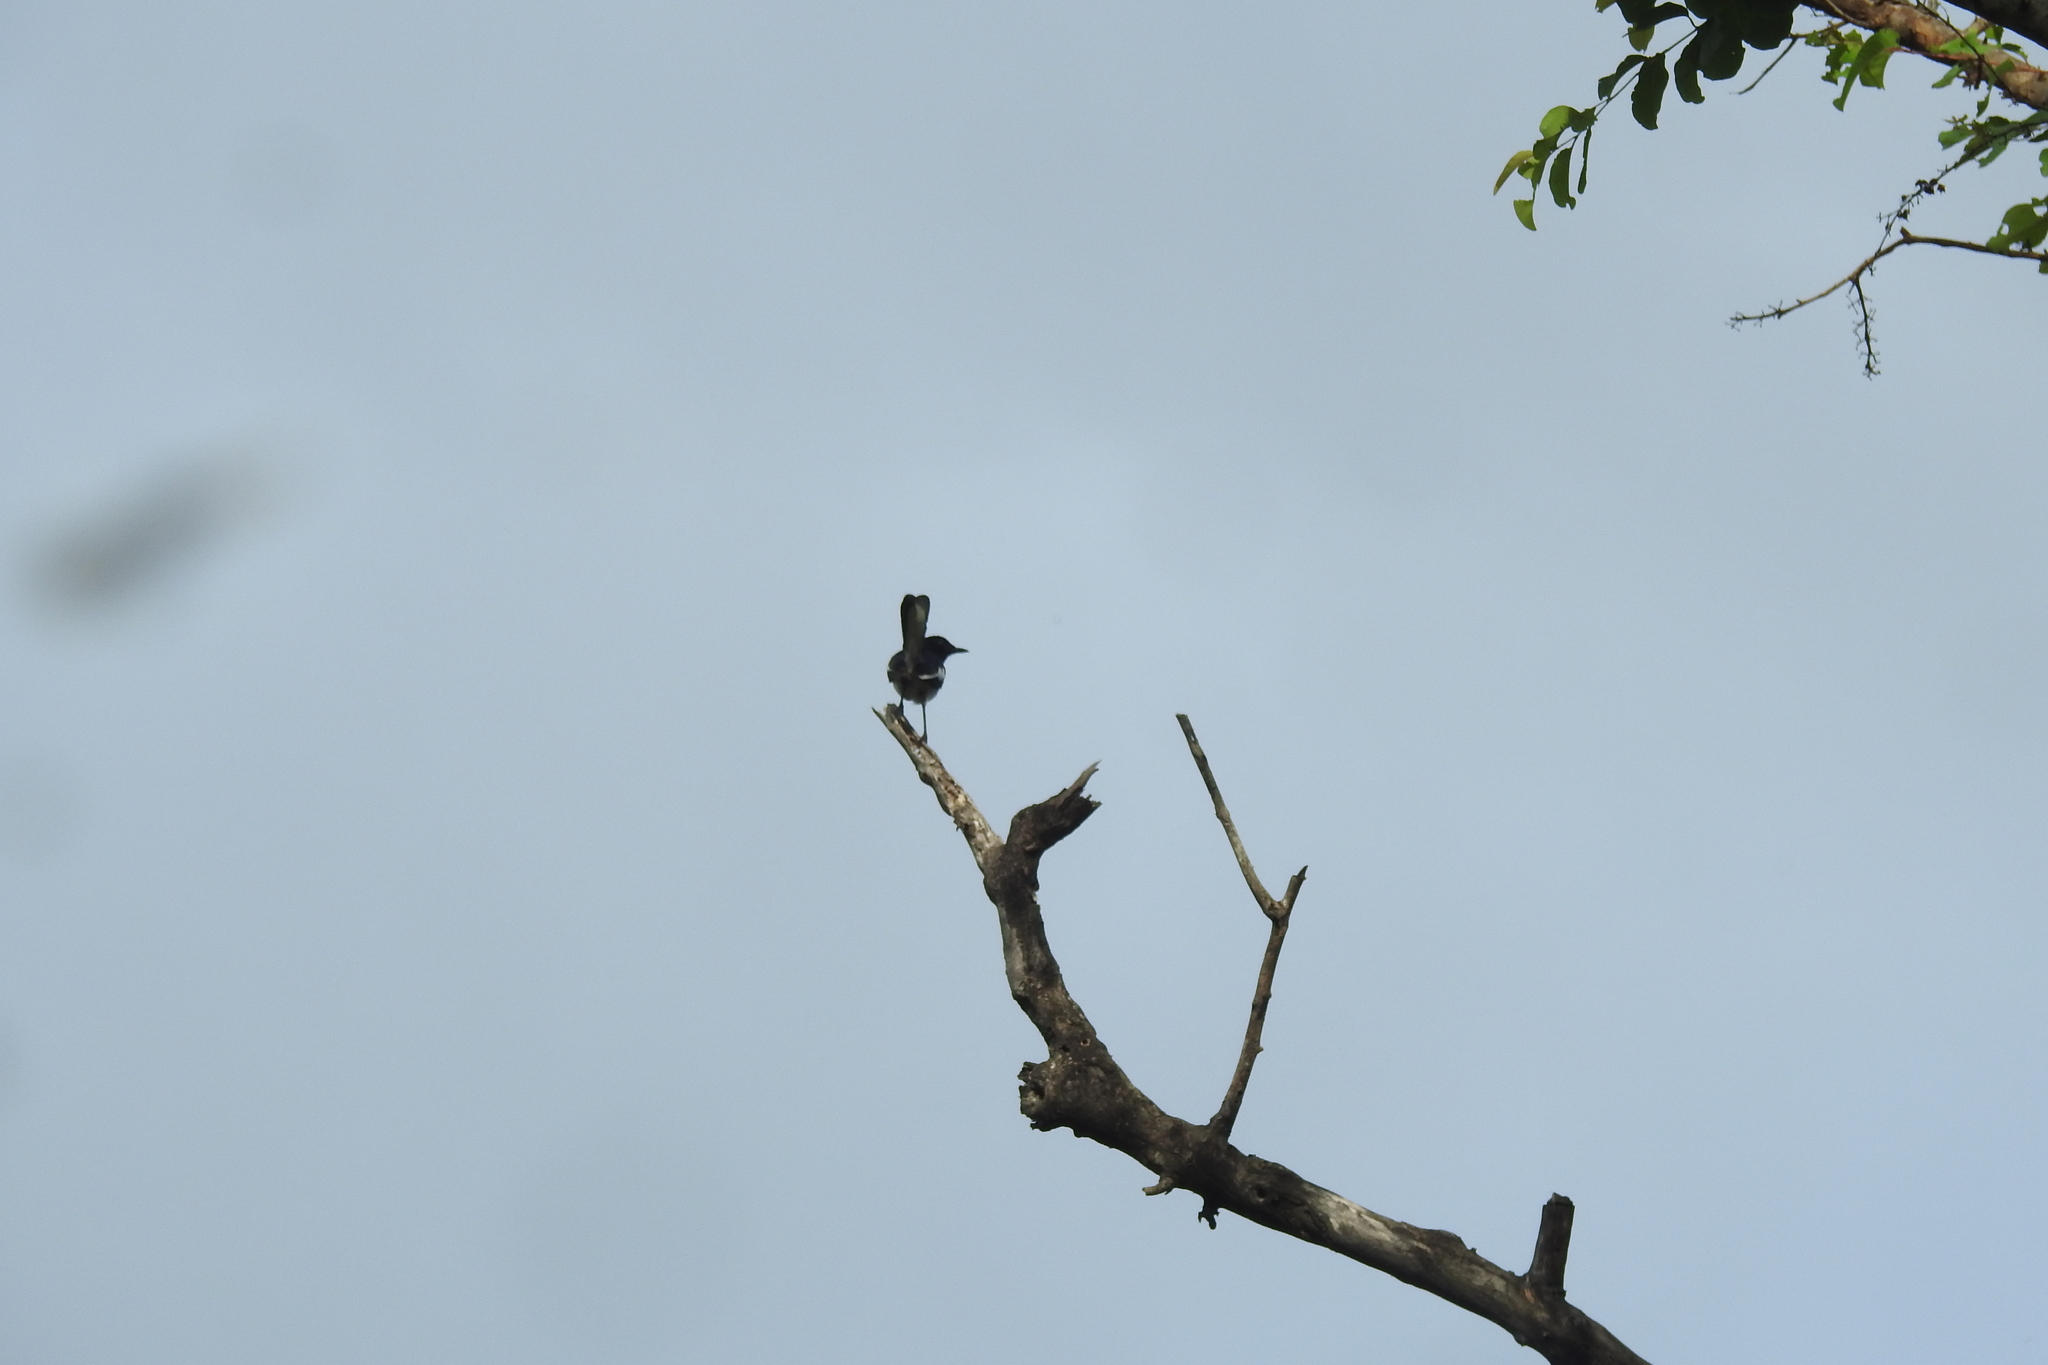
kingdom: Animalia
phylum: Chordata
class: Aves
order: Passeriformes
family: Muscicapidae
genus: Copsychus
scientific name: Copsychus saularis
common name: Oriental magpie-robin
